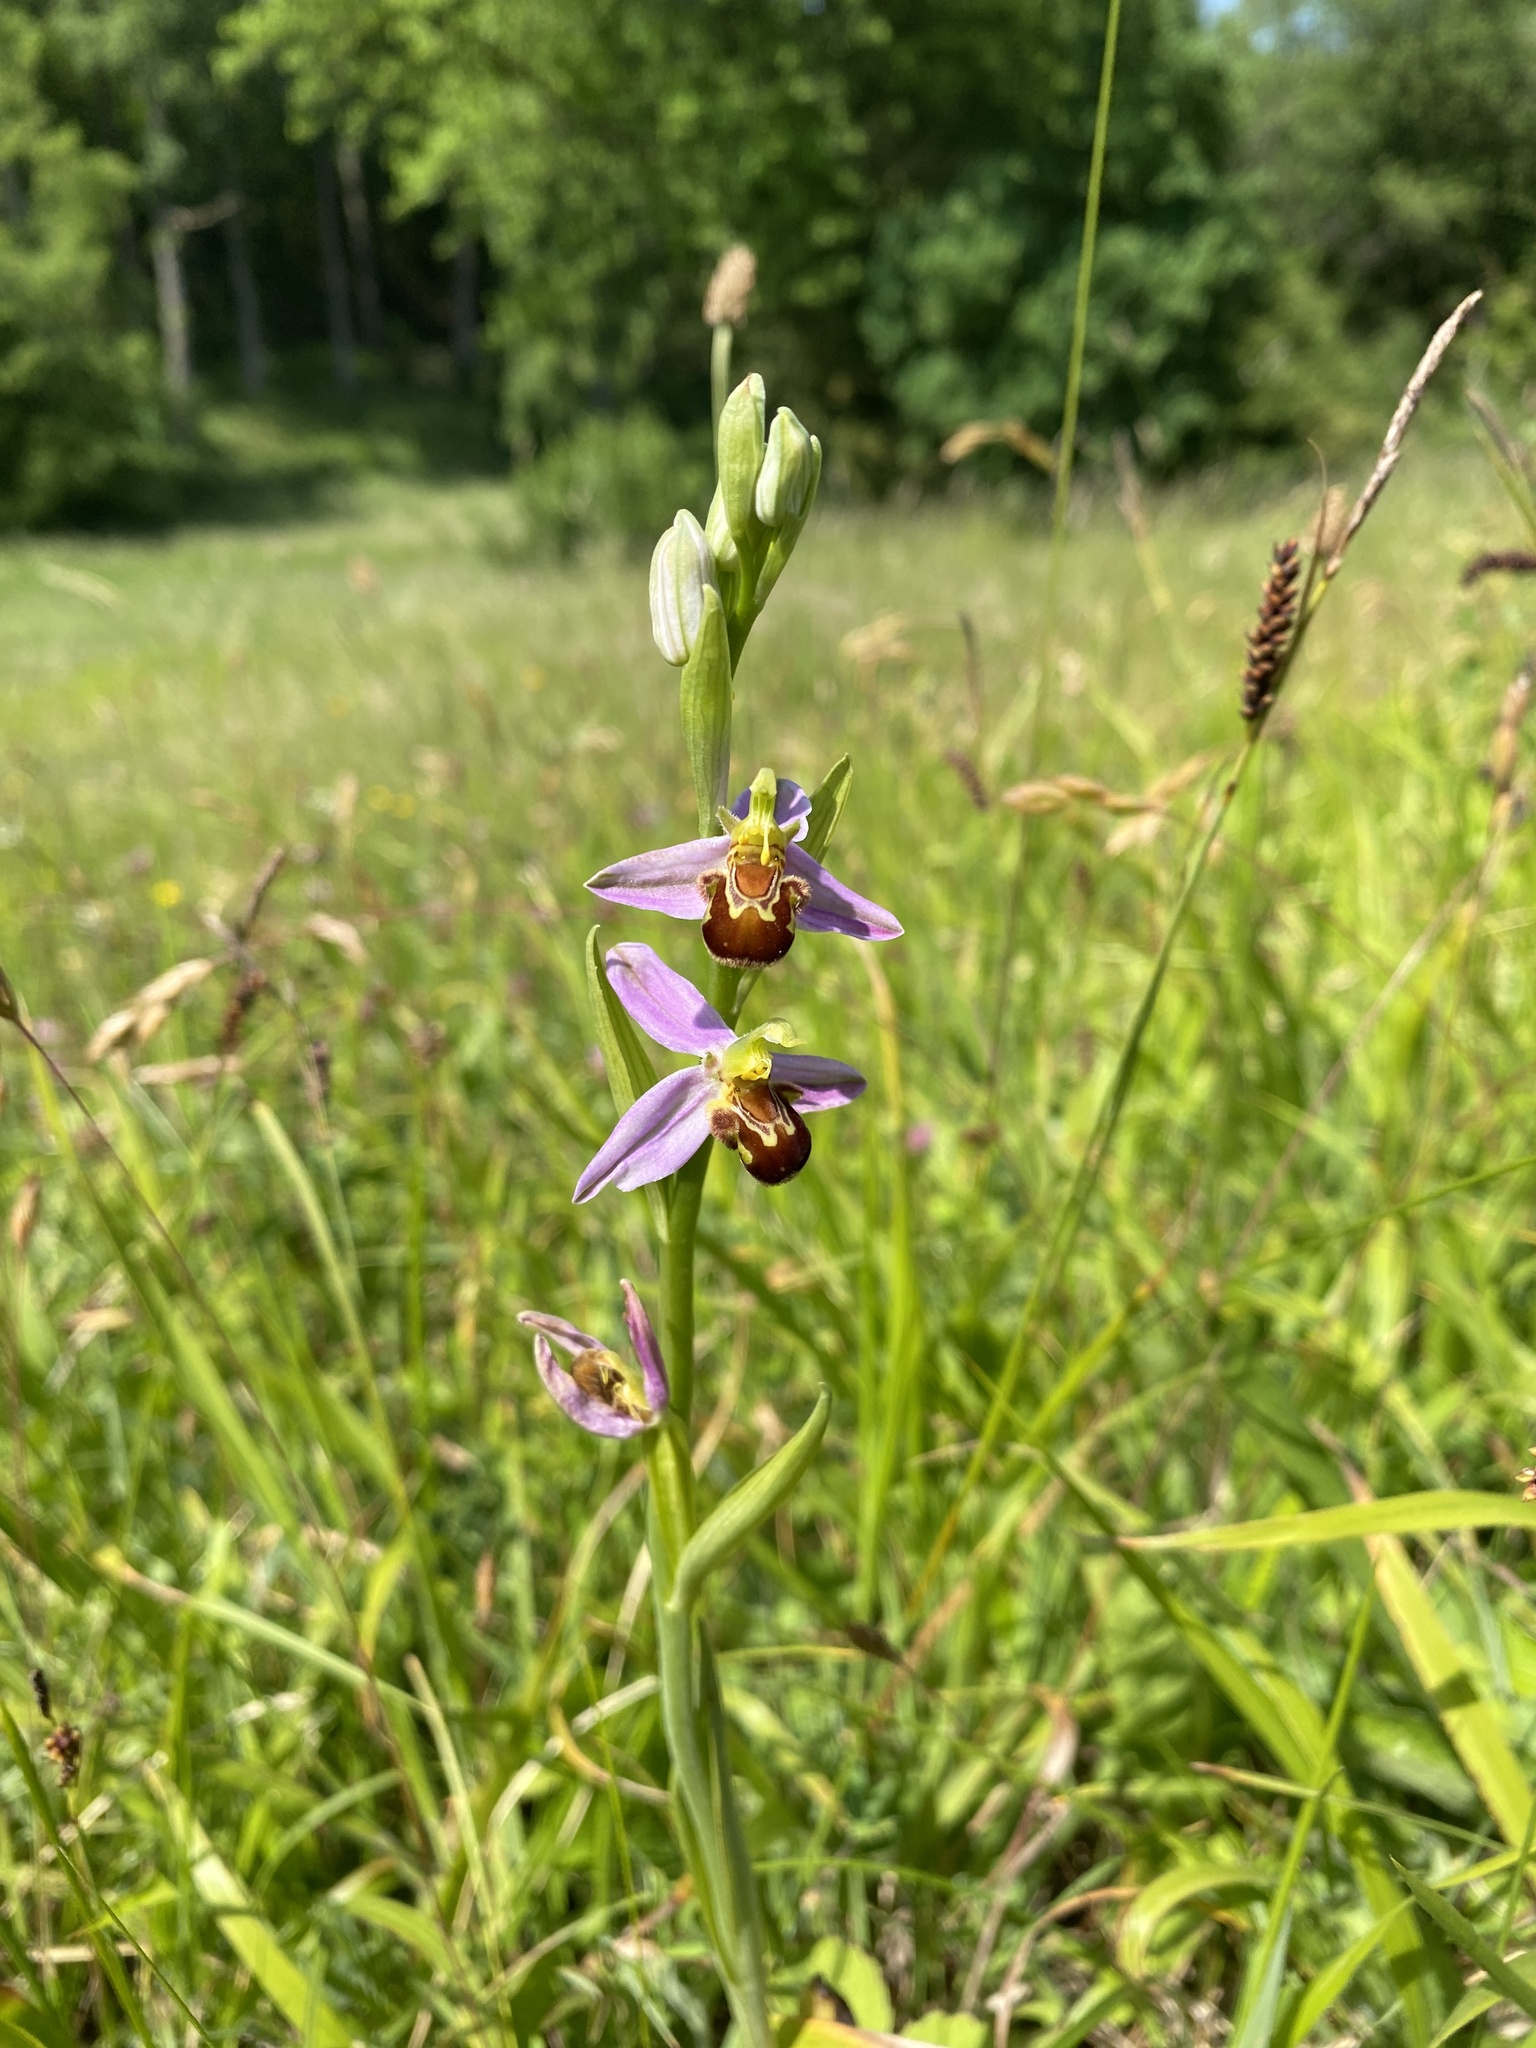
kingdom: Plantae
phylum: Tracheophyta
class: Liliopsida
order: Asparagales
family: Orchidaceae
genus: Ophrys
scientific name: Ophrys apifera
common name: Bee orchid
